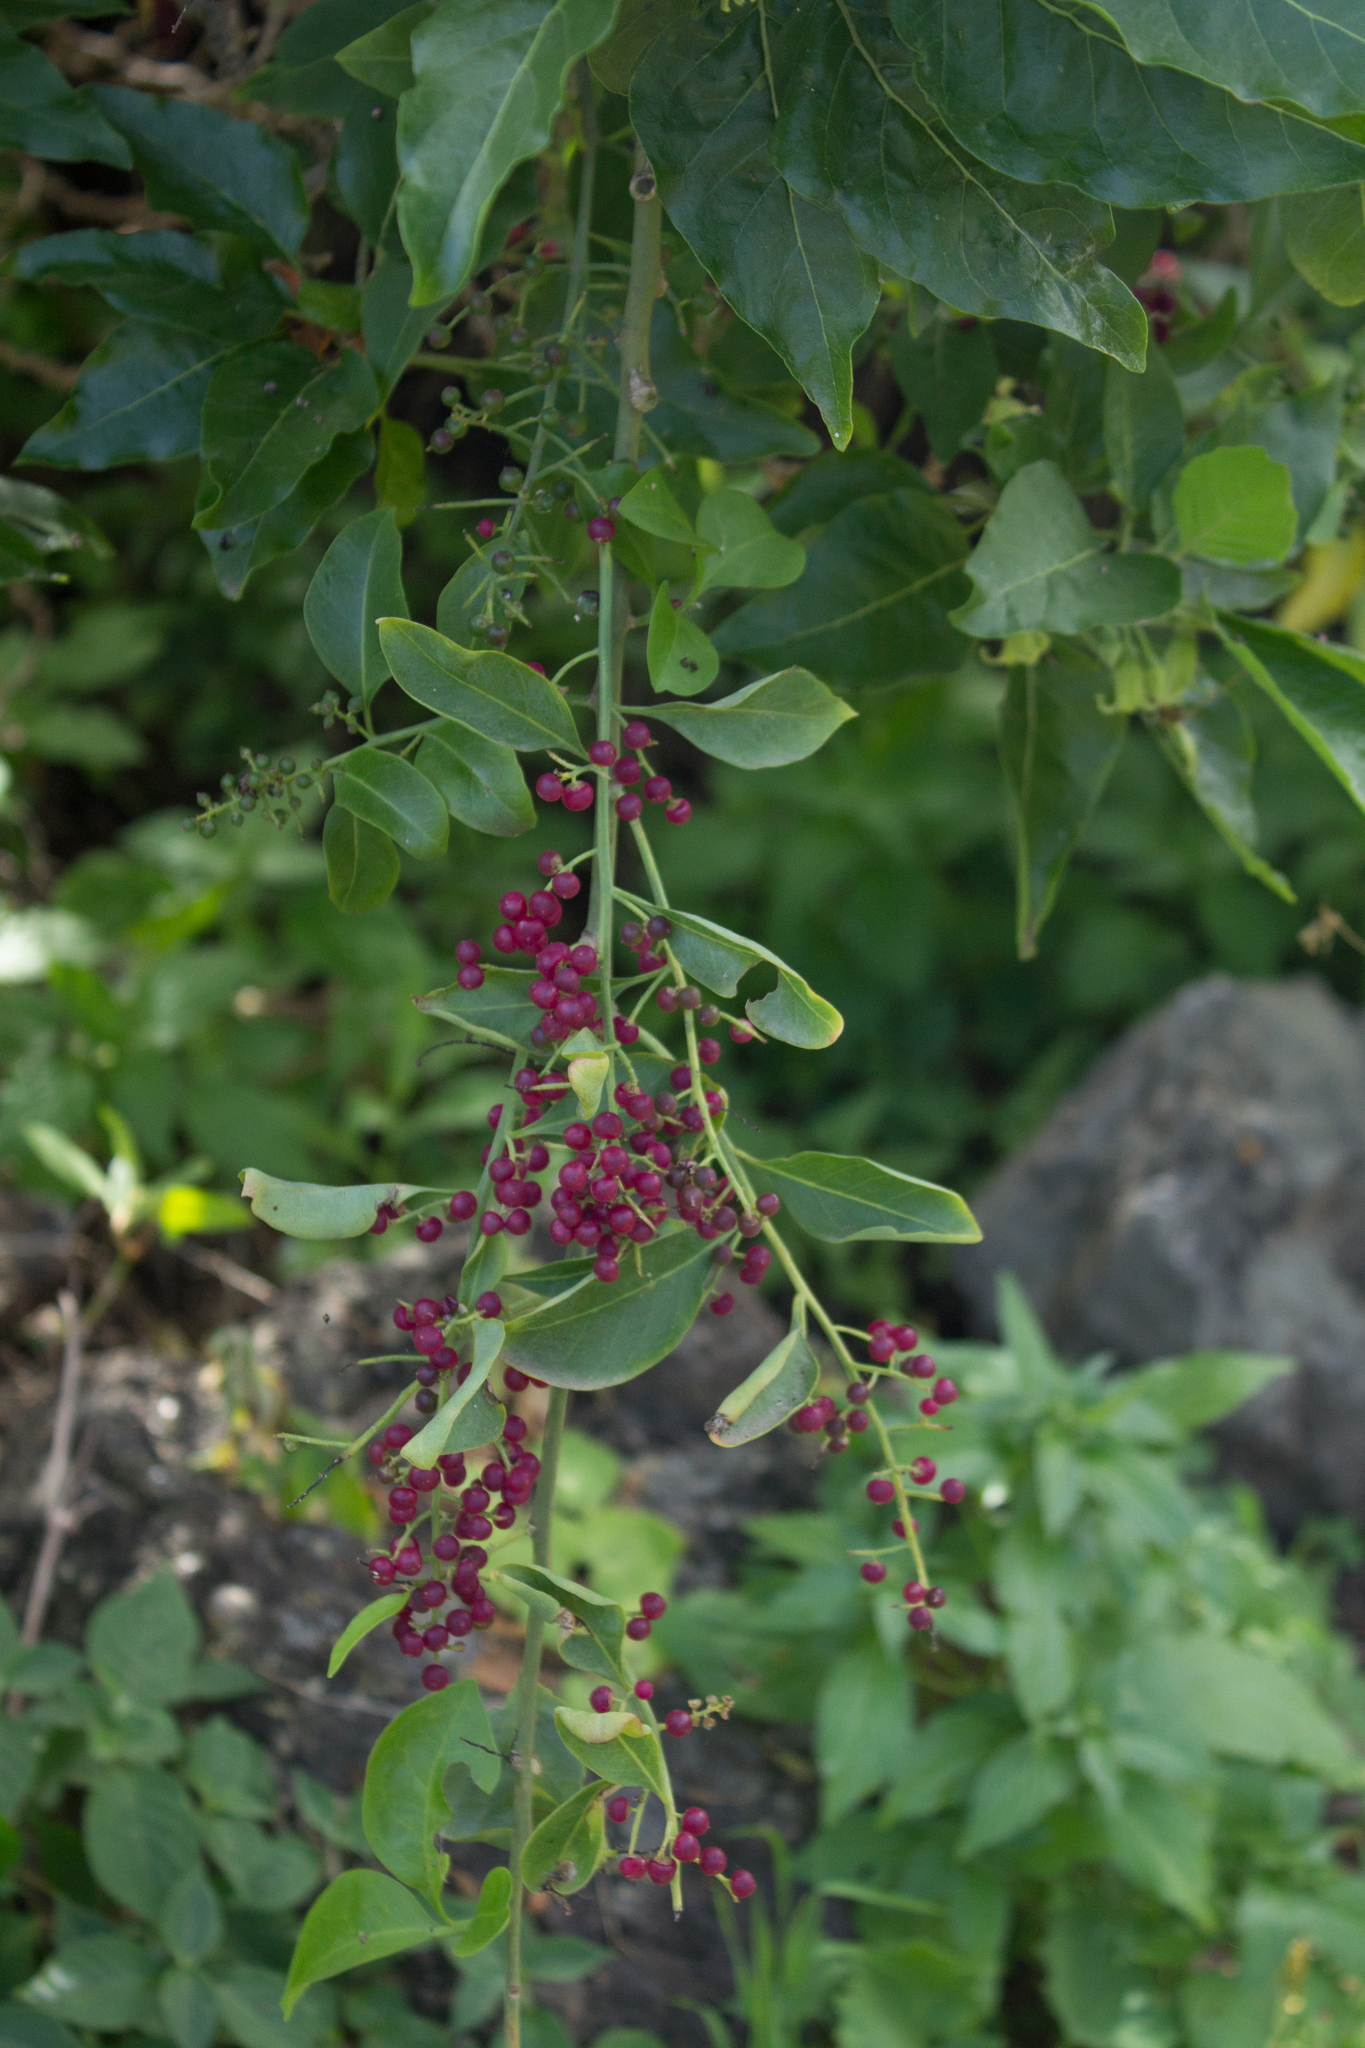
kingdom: Plantae
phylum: Tracheophyta
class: Magnoliopsida
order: Caryophyllales
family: Amaranthaceae
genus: Bosea
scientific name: Bosea yervamora
